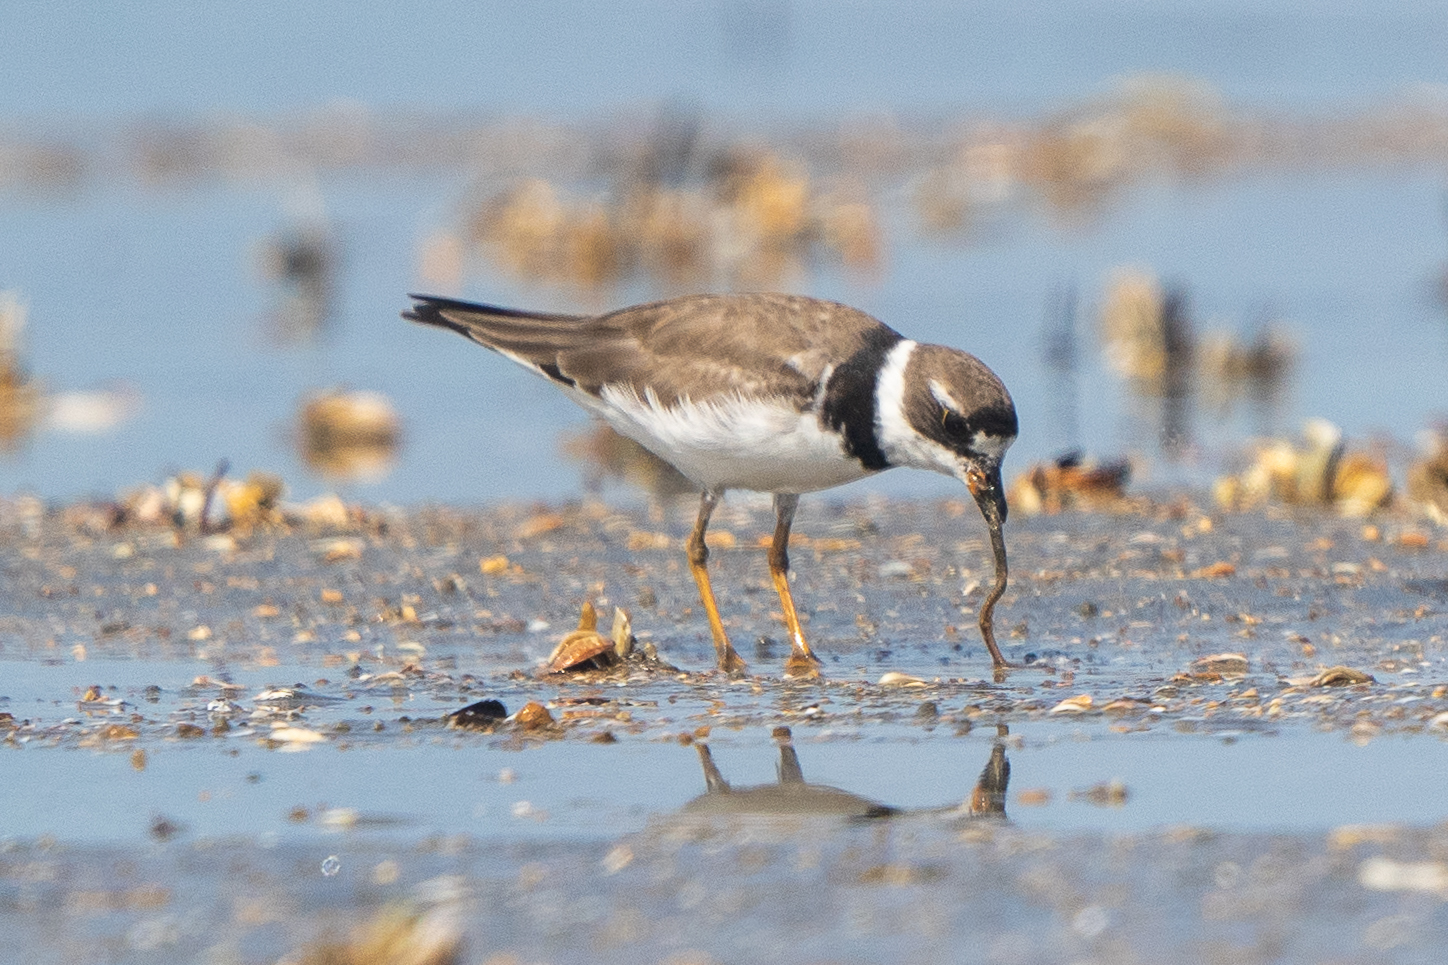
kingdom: Animalia
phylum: Chordata
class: Aves
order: Charadriiformes
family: Charadriidae
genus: Charadrius
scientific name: Charadrius semipalmatus
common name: Semipalmated plover
